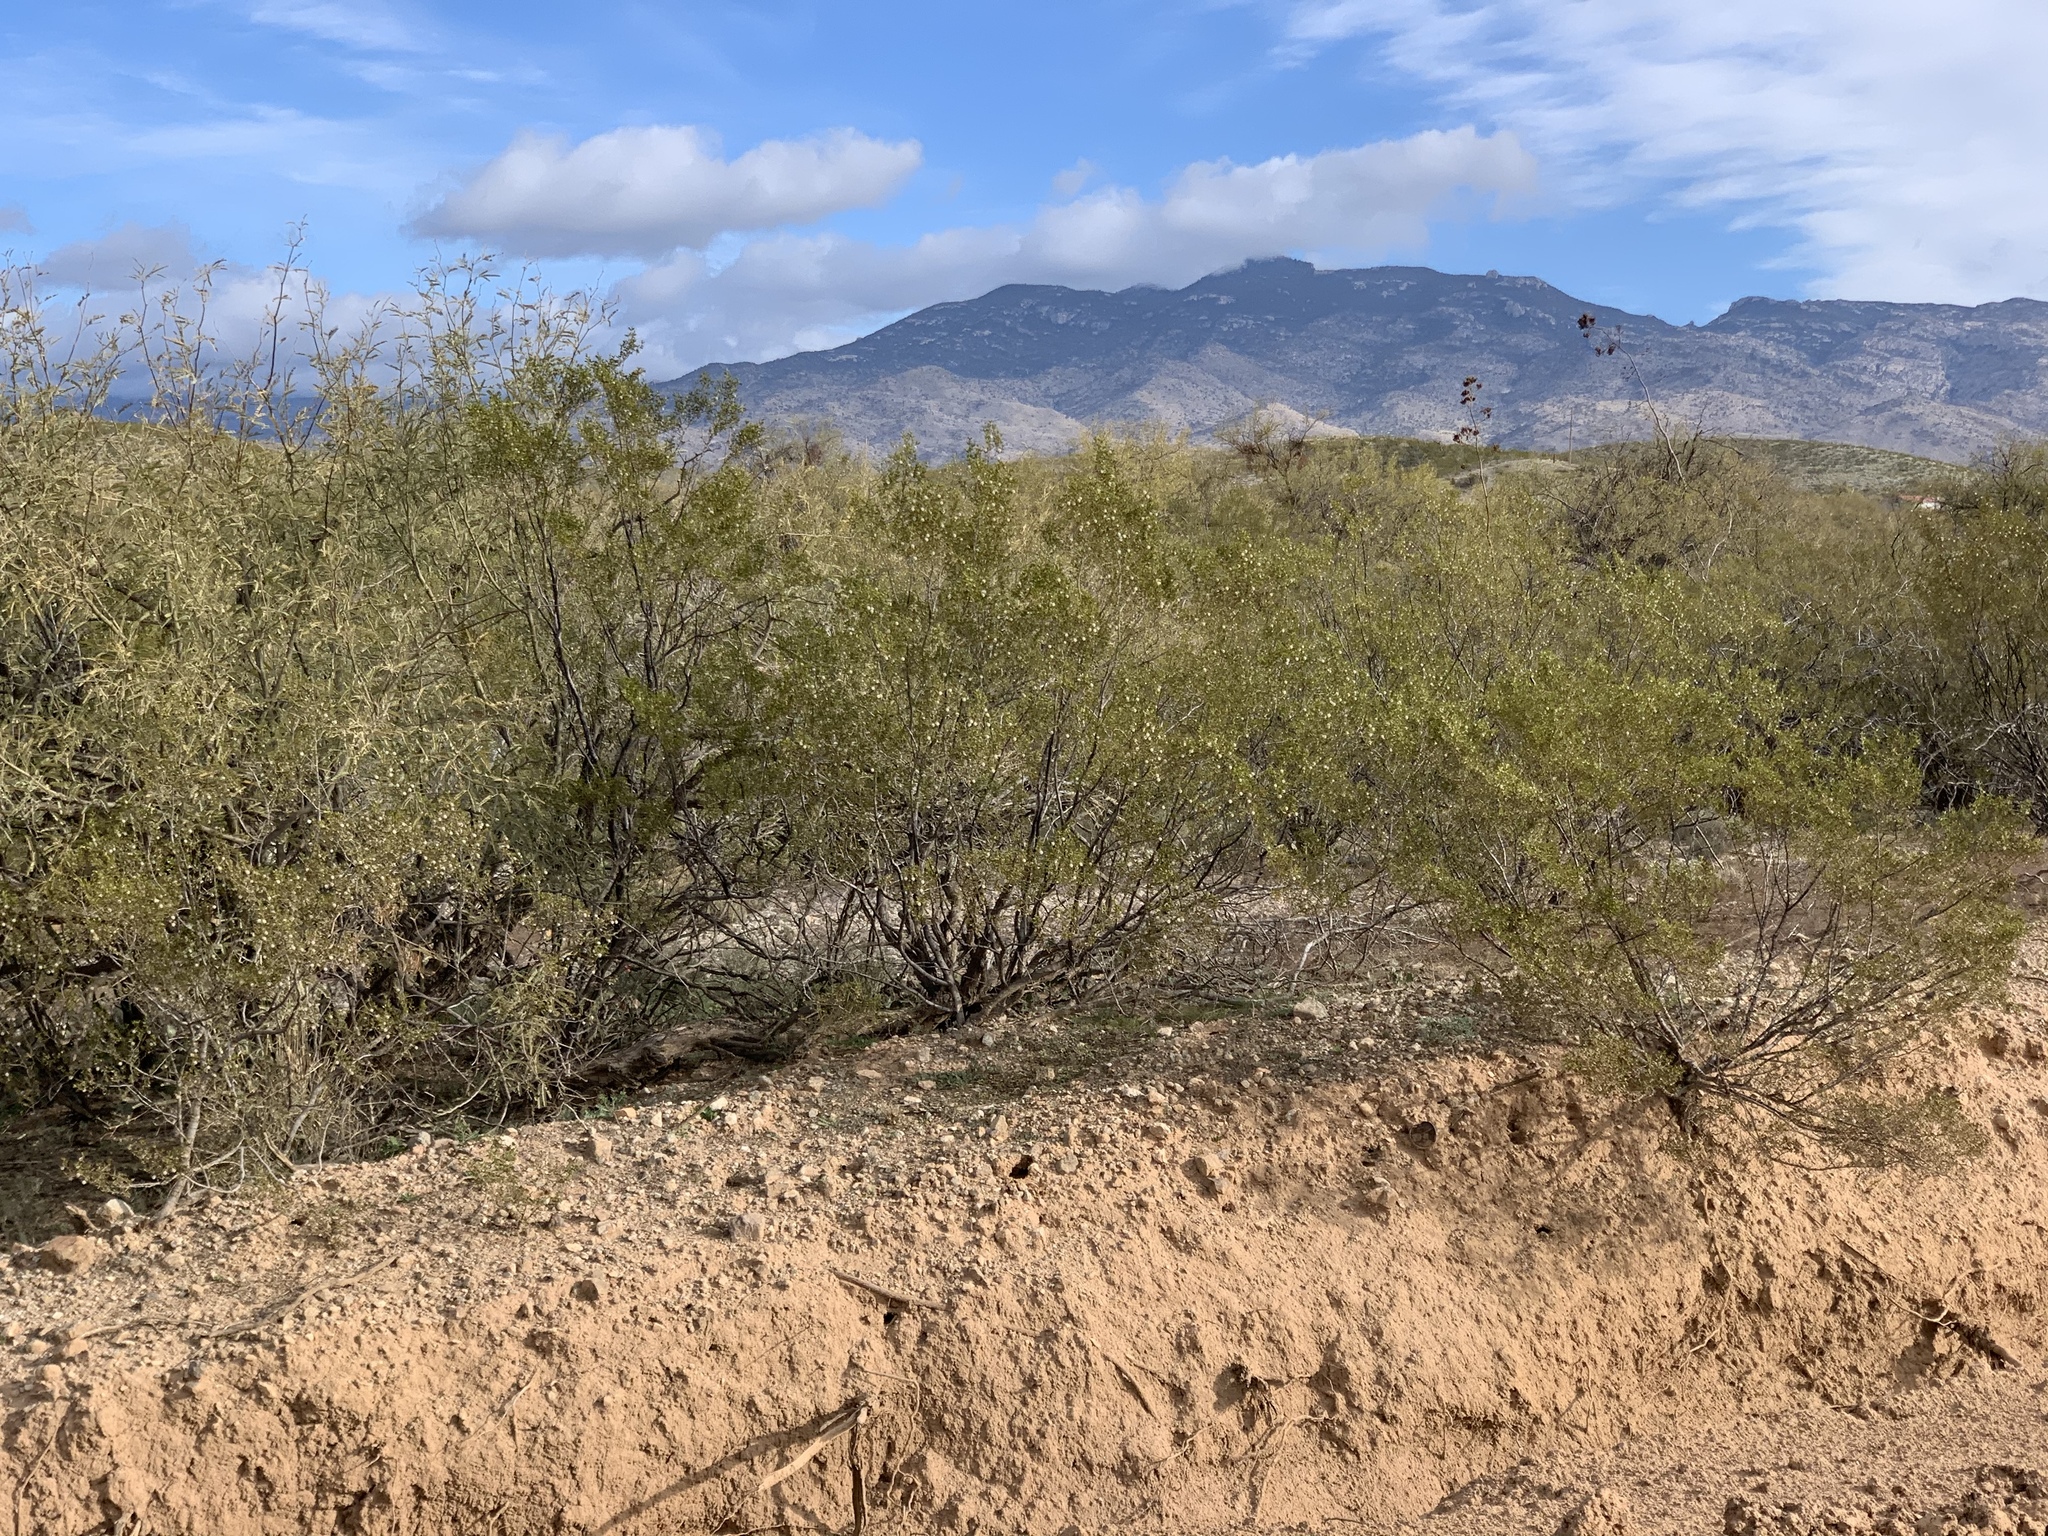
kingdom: Plantae
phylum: Tracheophyta
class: Magnoliopsida
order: Zygophyllales
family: Zygophyllaceae
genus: Larrea
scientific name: Larrea tridentata
